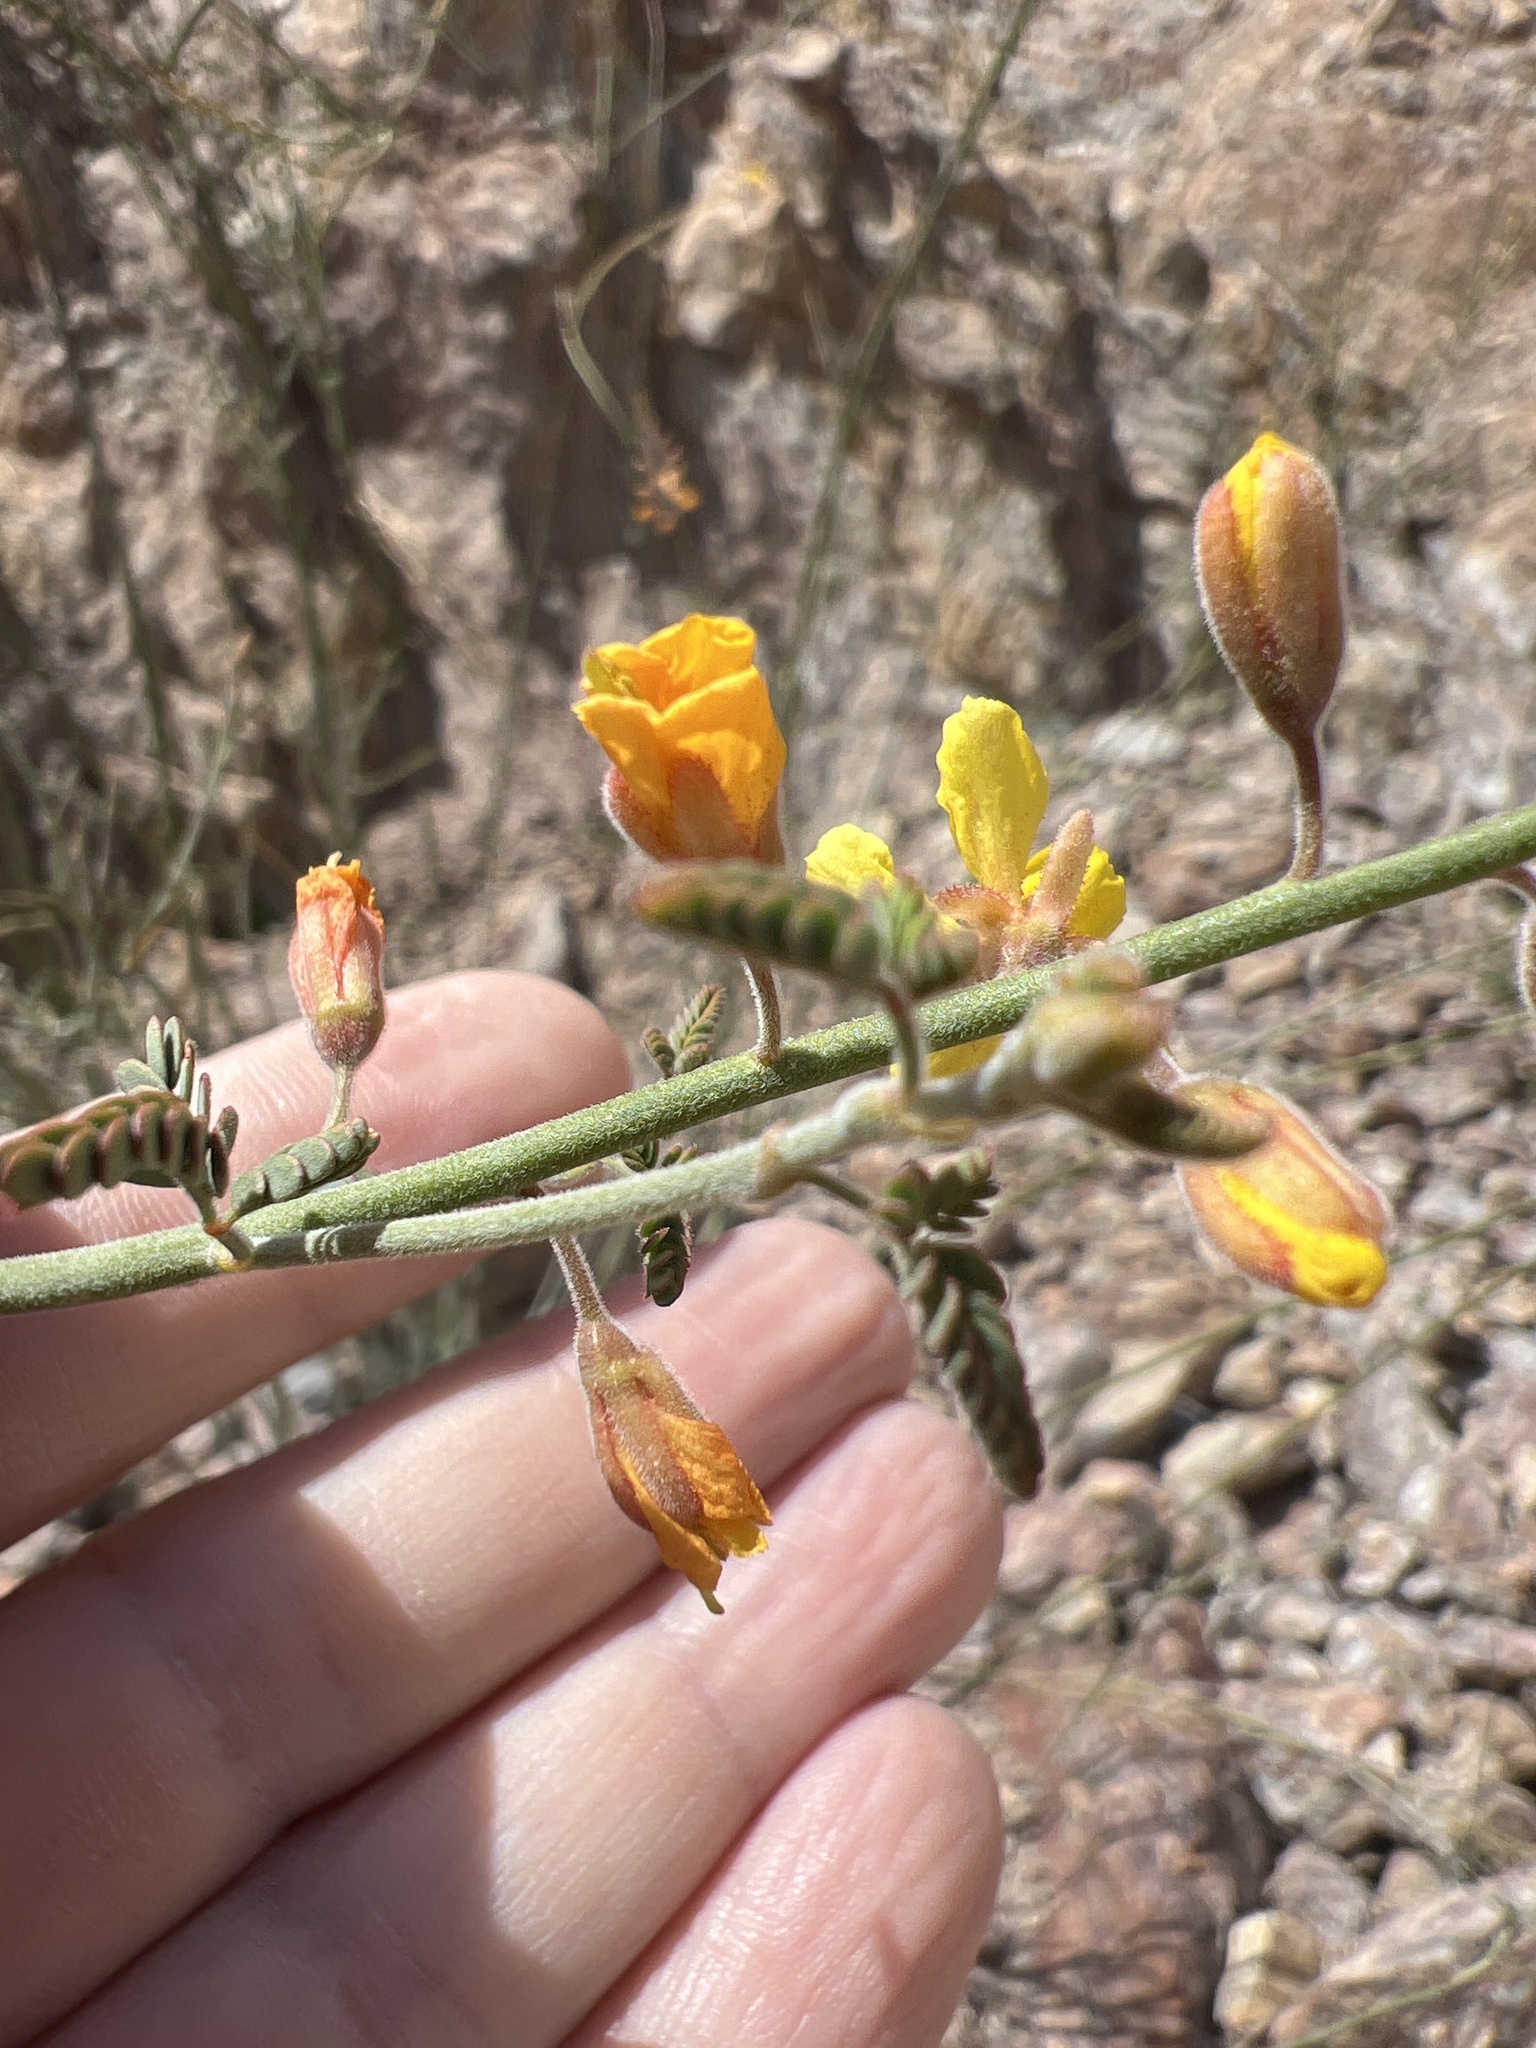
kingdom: Plantae
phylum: Tracheophyta
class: Magnoliopsida
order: Fabales
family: Fabaceae
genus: Hoffmannseggia
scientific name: Hoffmannseggia microphylla
